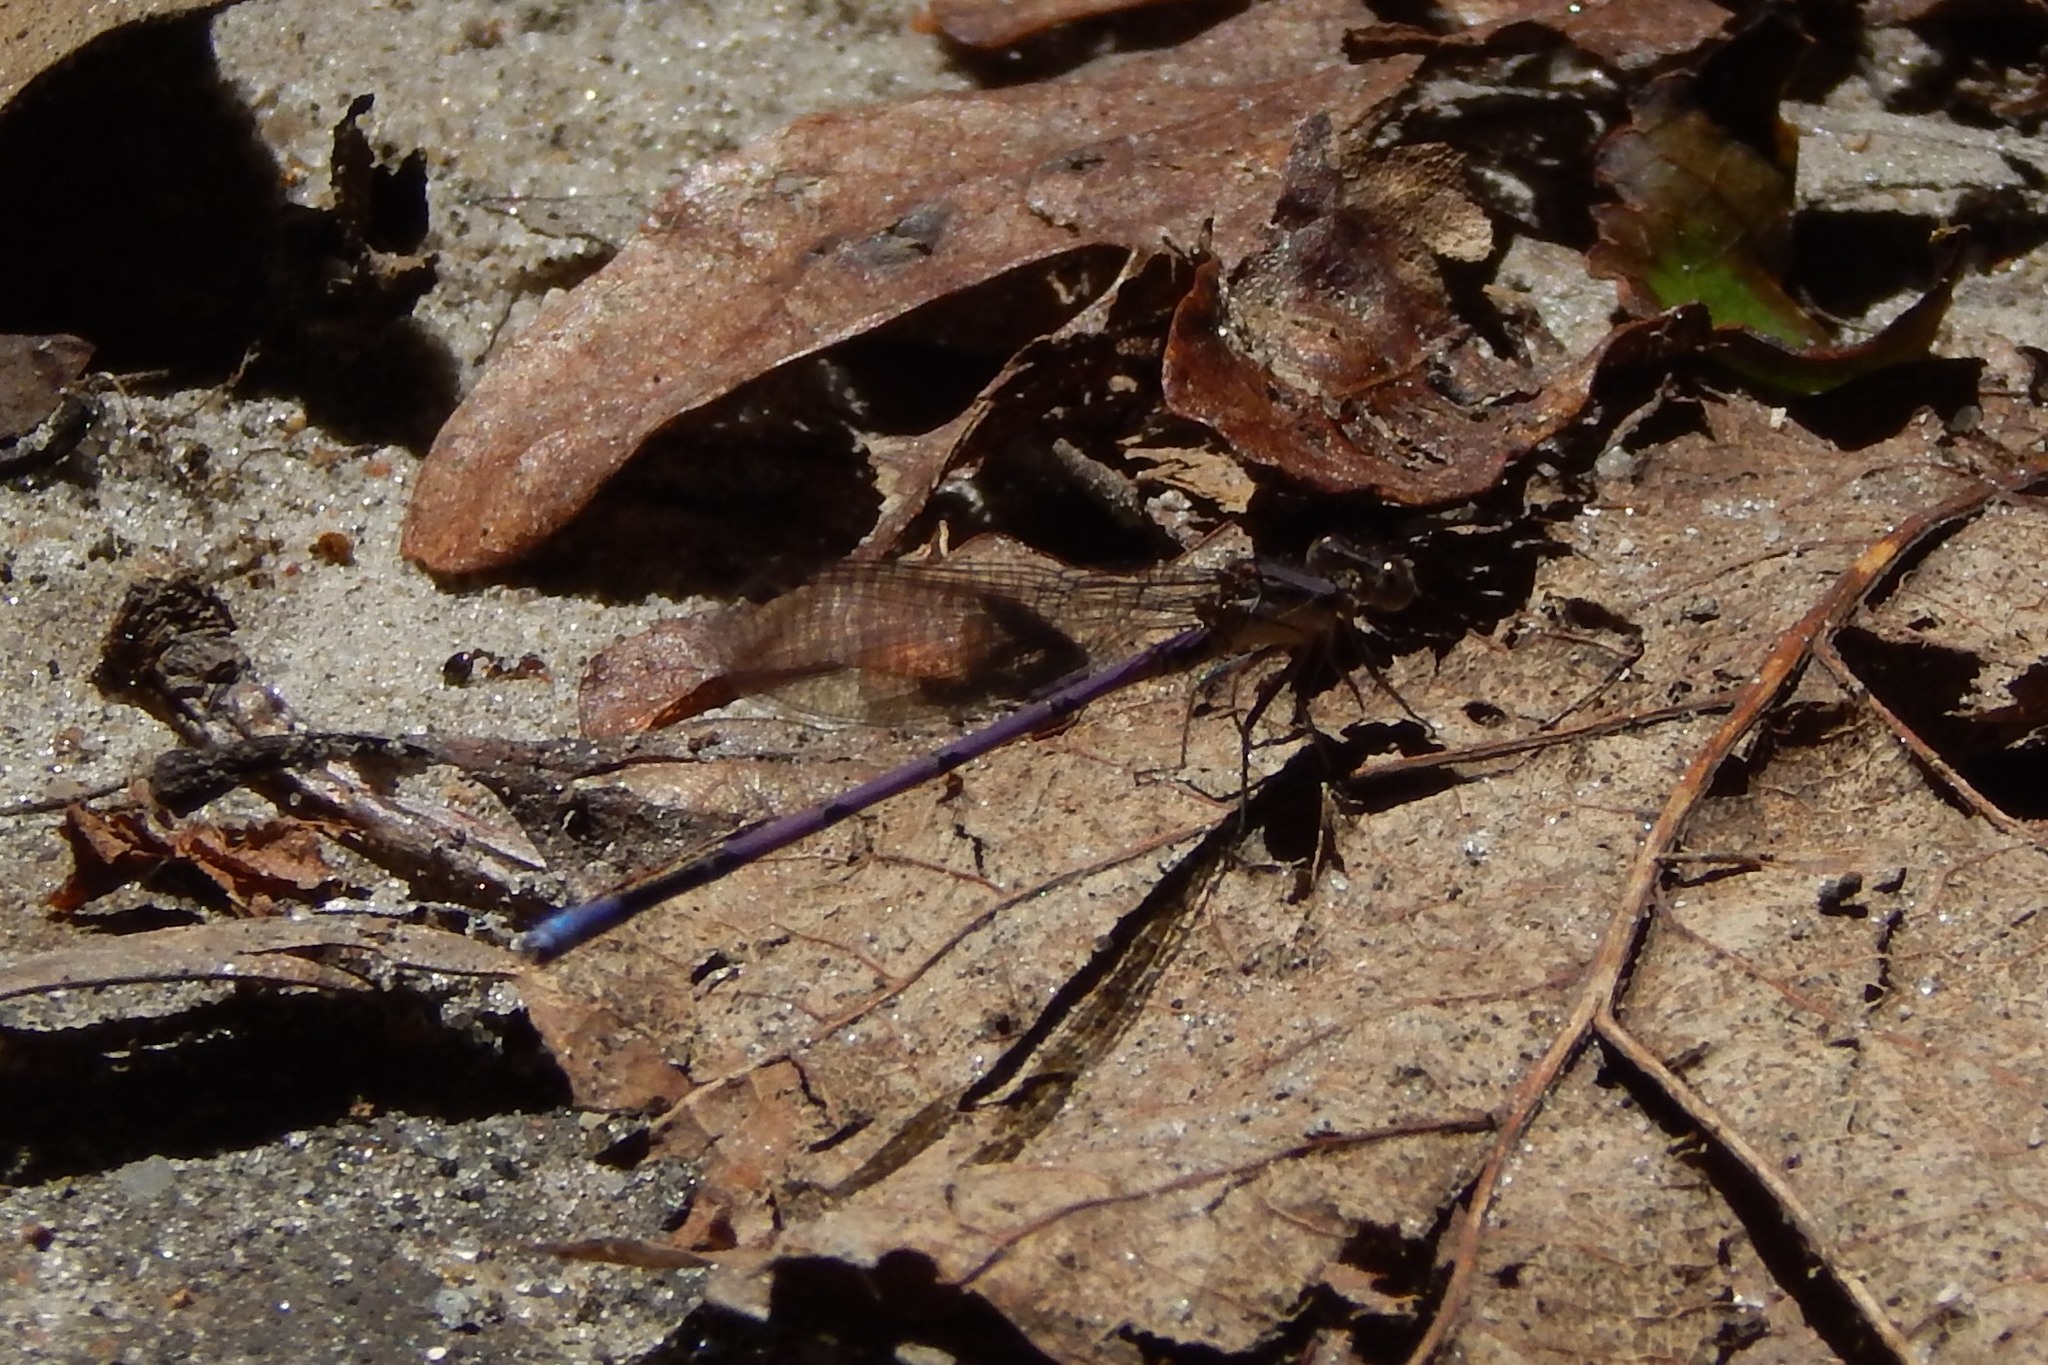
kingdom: Animalia
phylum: Arthropoda
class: Insecta
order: Odonata
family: Coenagrionidae
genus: Argia
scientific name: Argia fumipennis
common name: Variable dancer
